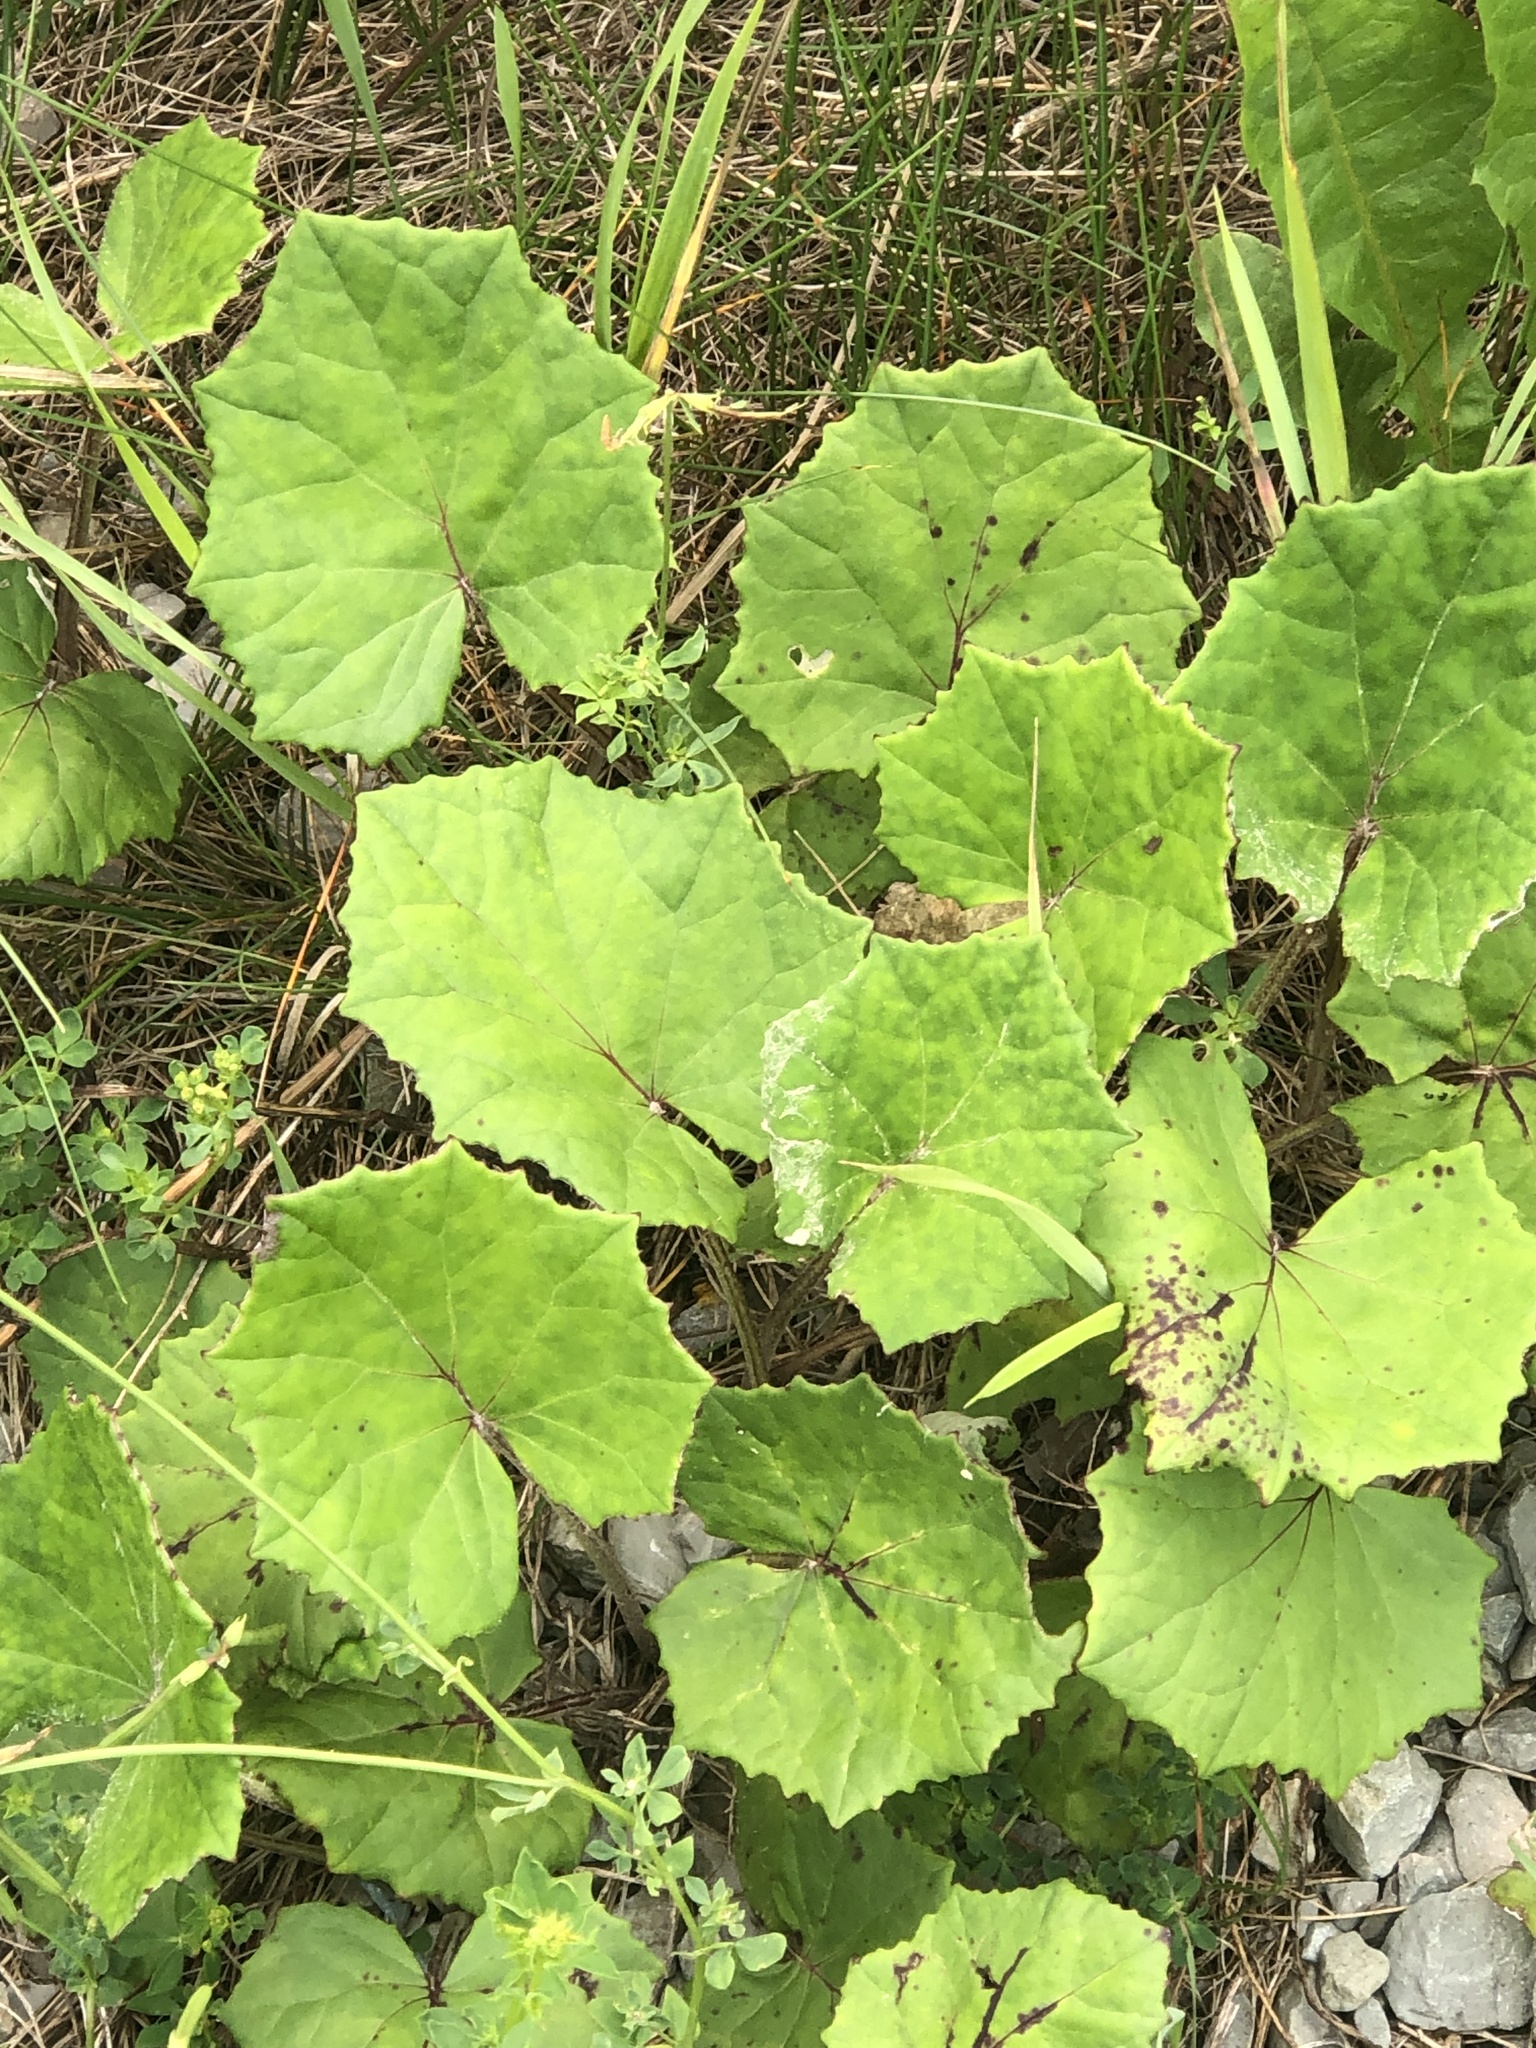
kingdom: Plantae
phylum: Tracheophyta
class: Magnoliopsida
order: Asterales
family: Asteraceae
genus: Tussilago
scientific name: Tussilago farfara
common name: Coltsfoot
